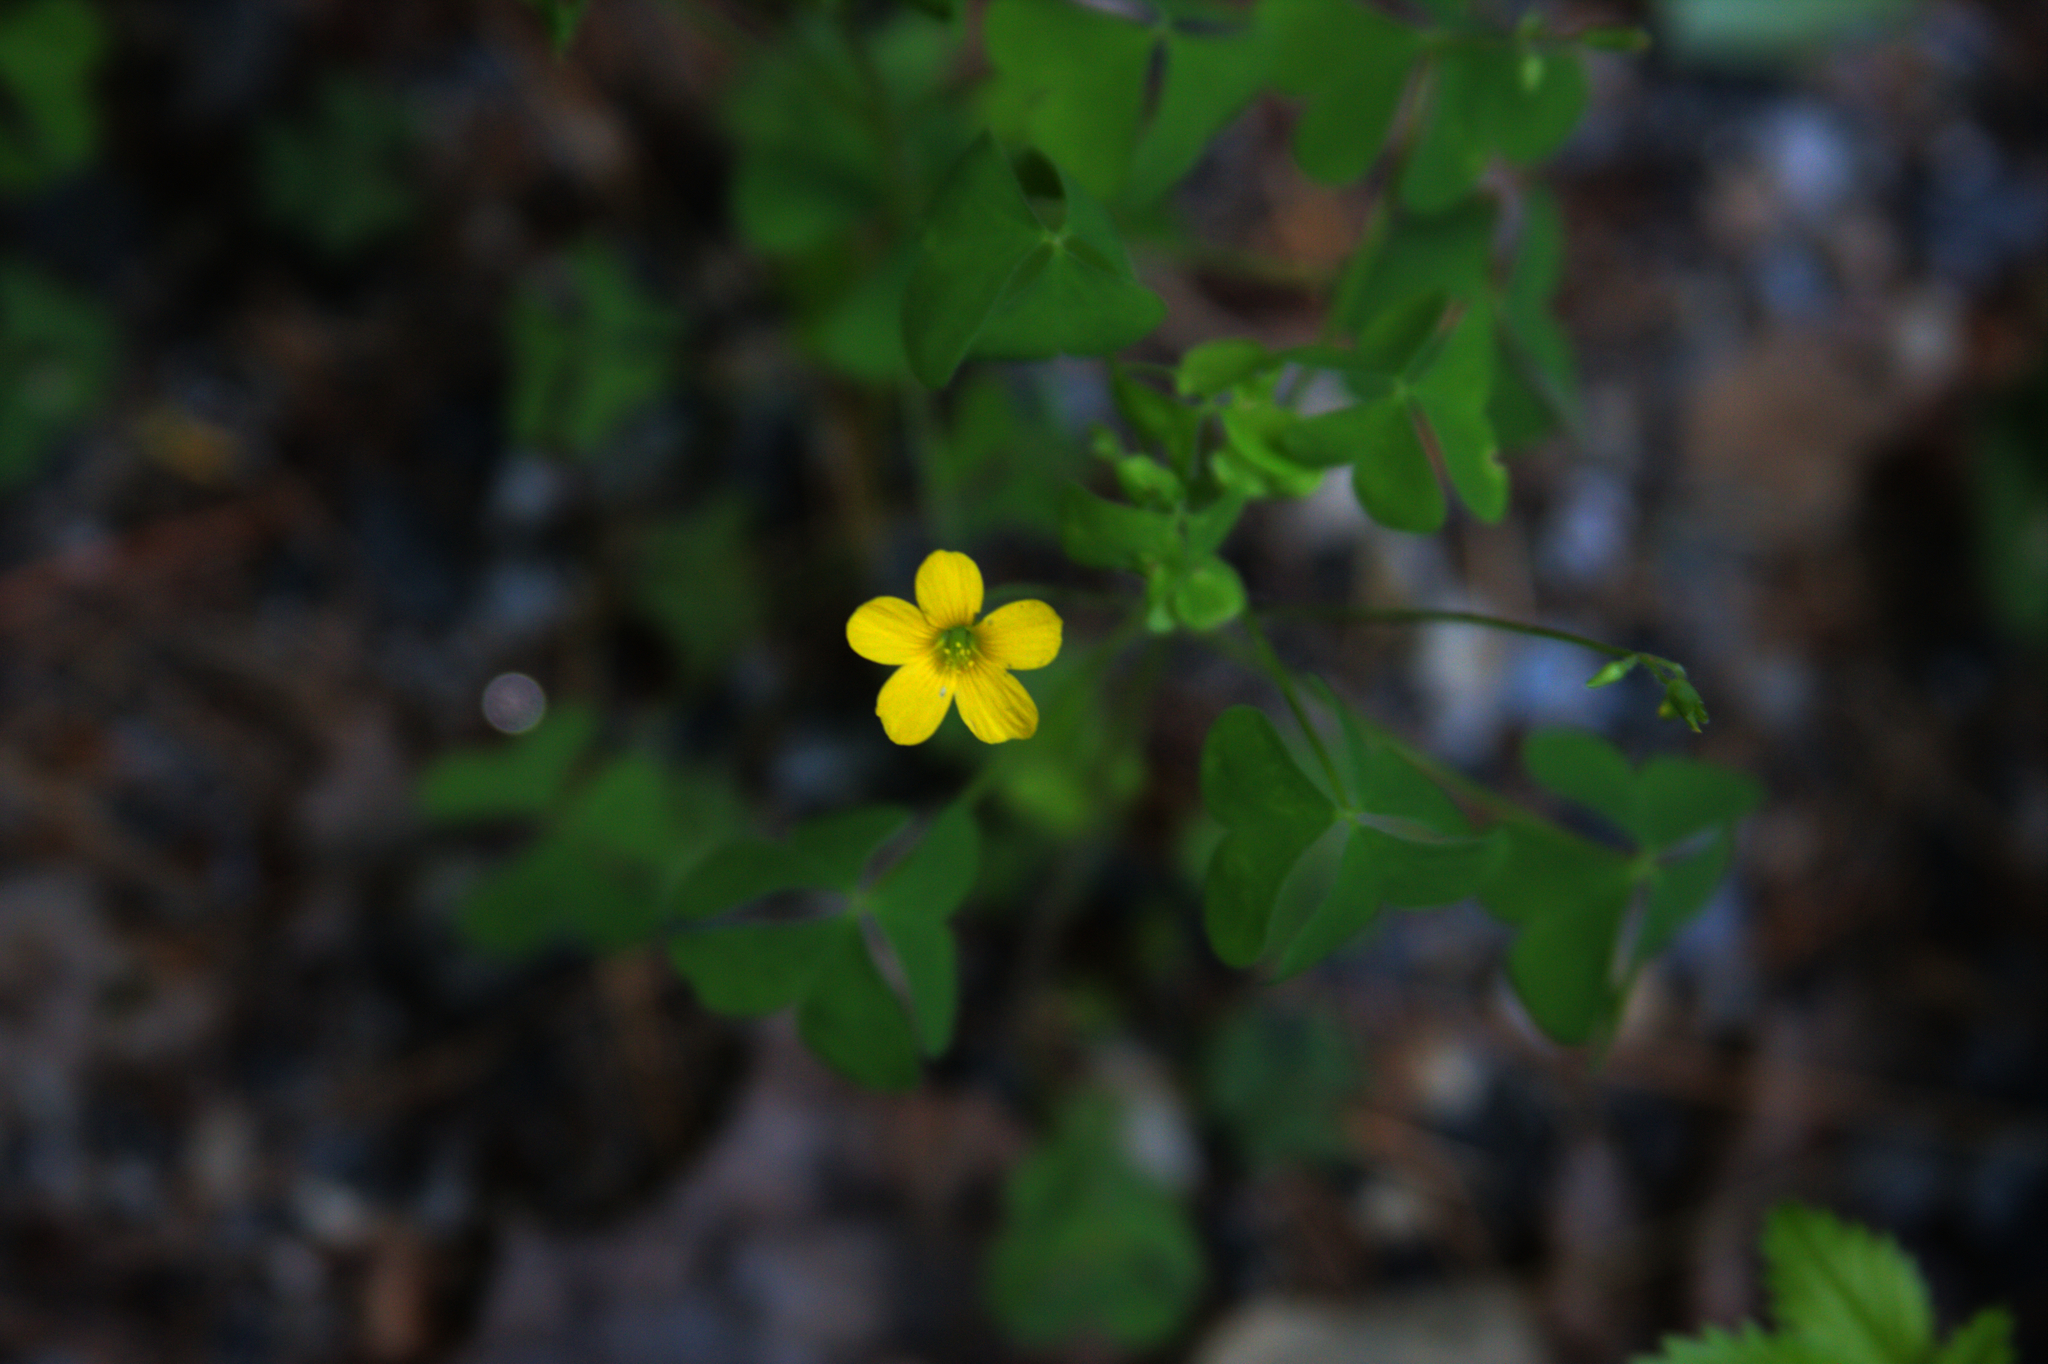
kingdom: Plantae
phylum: Tracheophyta
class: Magnoliopsida
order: Oxalidales
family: Oxalidaceae
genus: Oxalis
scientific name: Oxalis stricta
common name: Upright yellow-sorrel
